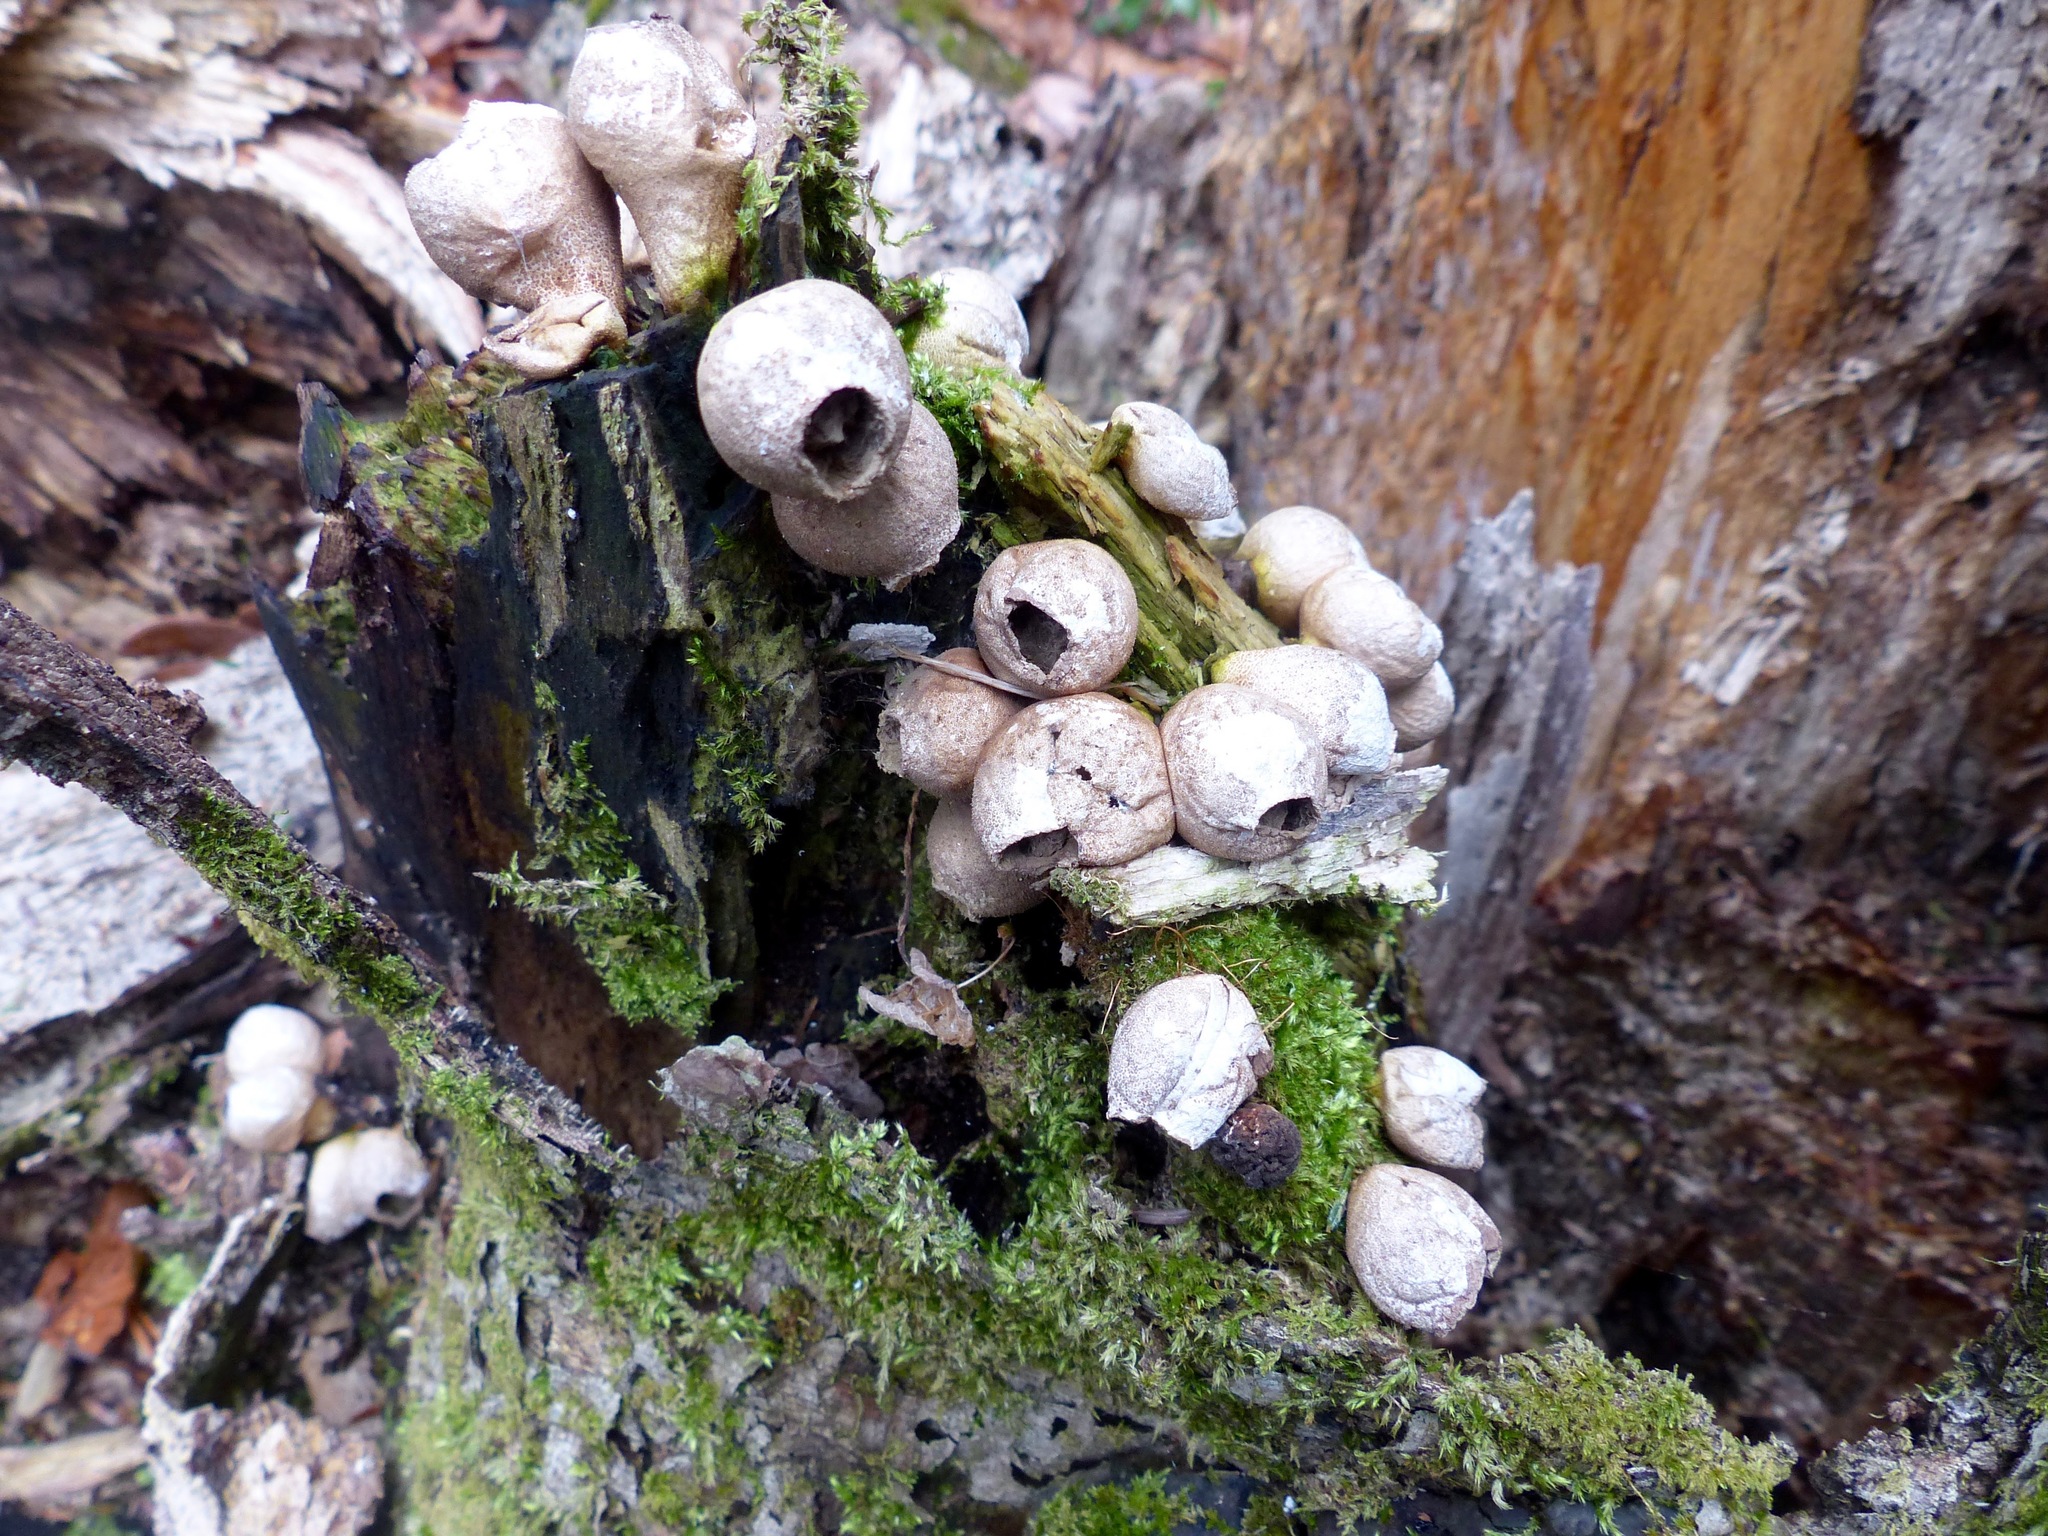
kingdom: Fungi
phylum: Basidiomycota
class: Agaricomycetes
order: Agaricales
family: Lycoperdaceae
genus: Apioperdon
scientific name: Apioperdon pyriforme
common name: Pear-shaped puffball
